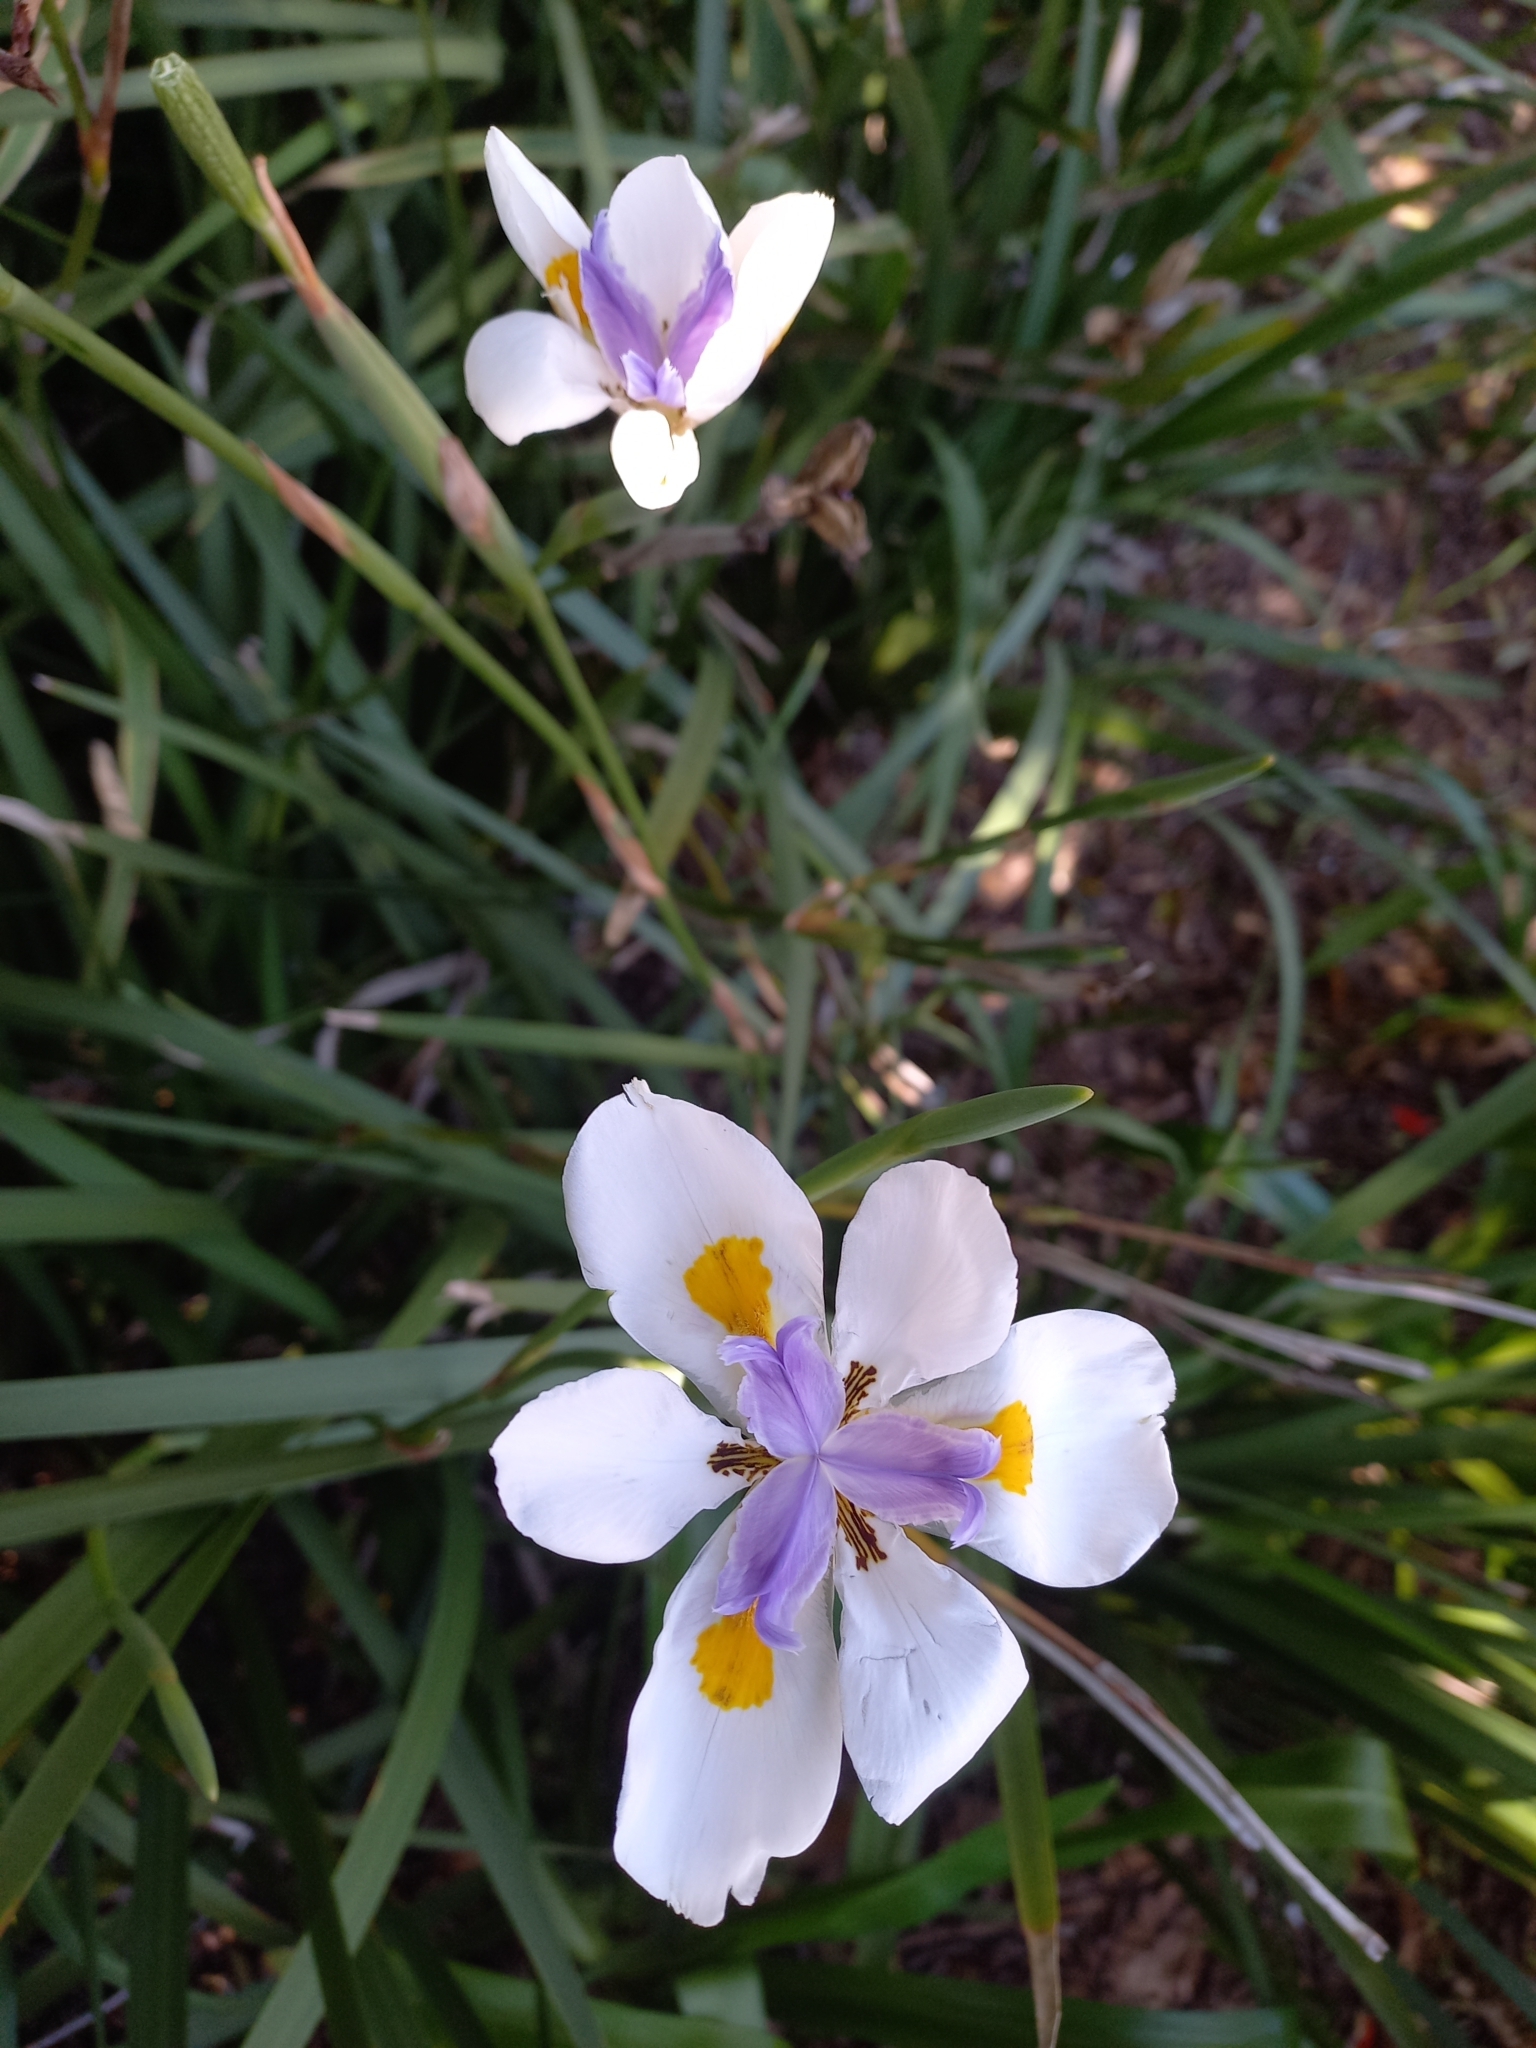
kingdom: Plantae
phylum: Tracheophyta
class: Liliopsida
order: Asparagales
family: Iridaceae
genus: Dietes
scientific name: Dietes grandiflora
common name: Wild iris
